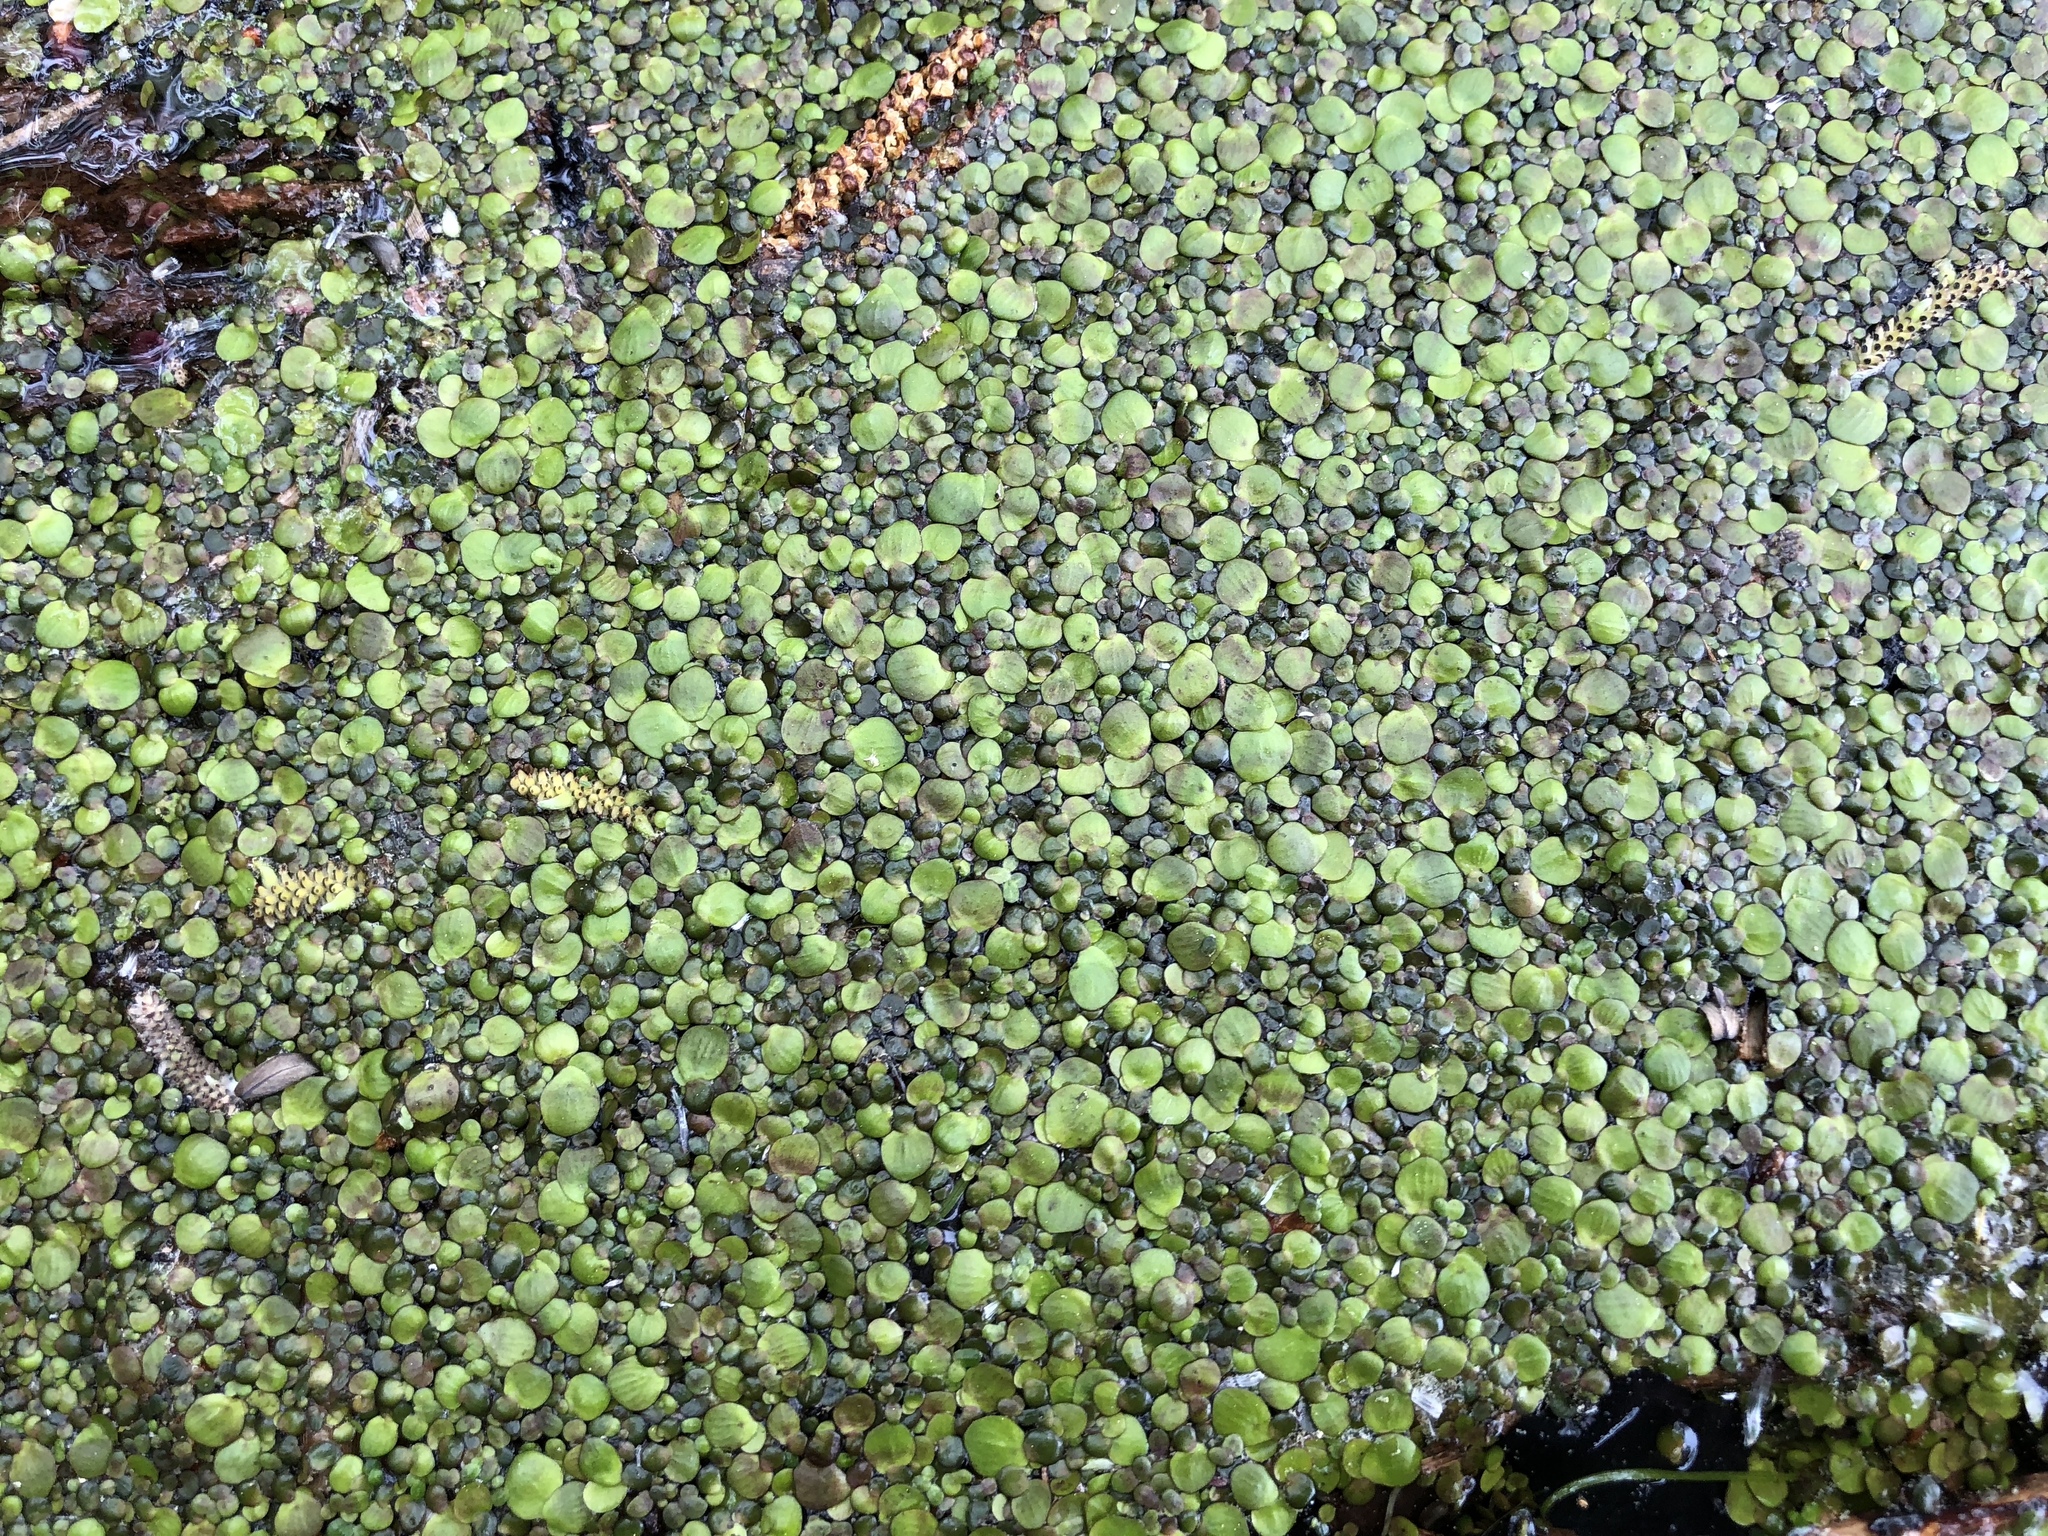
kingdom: Plantae
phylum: Tracheophyta
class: Liliopsida
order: Alismatales
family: Araceae
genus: Spirodela
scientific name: Spirodela polyrhiza
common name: Great duckweed
